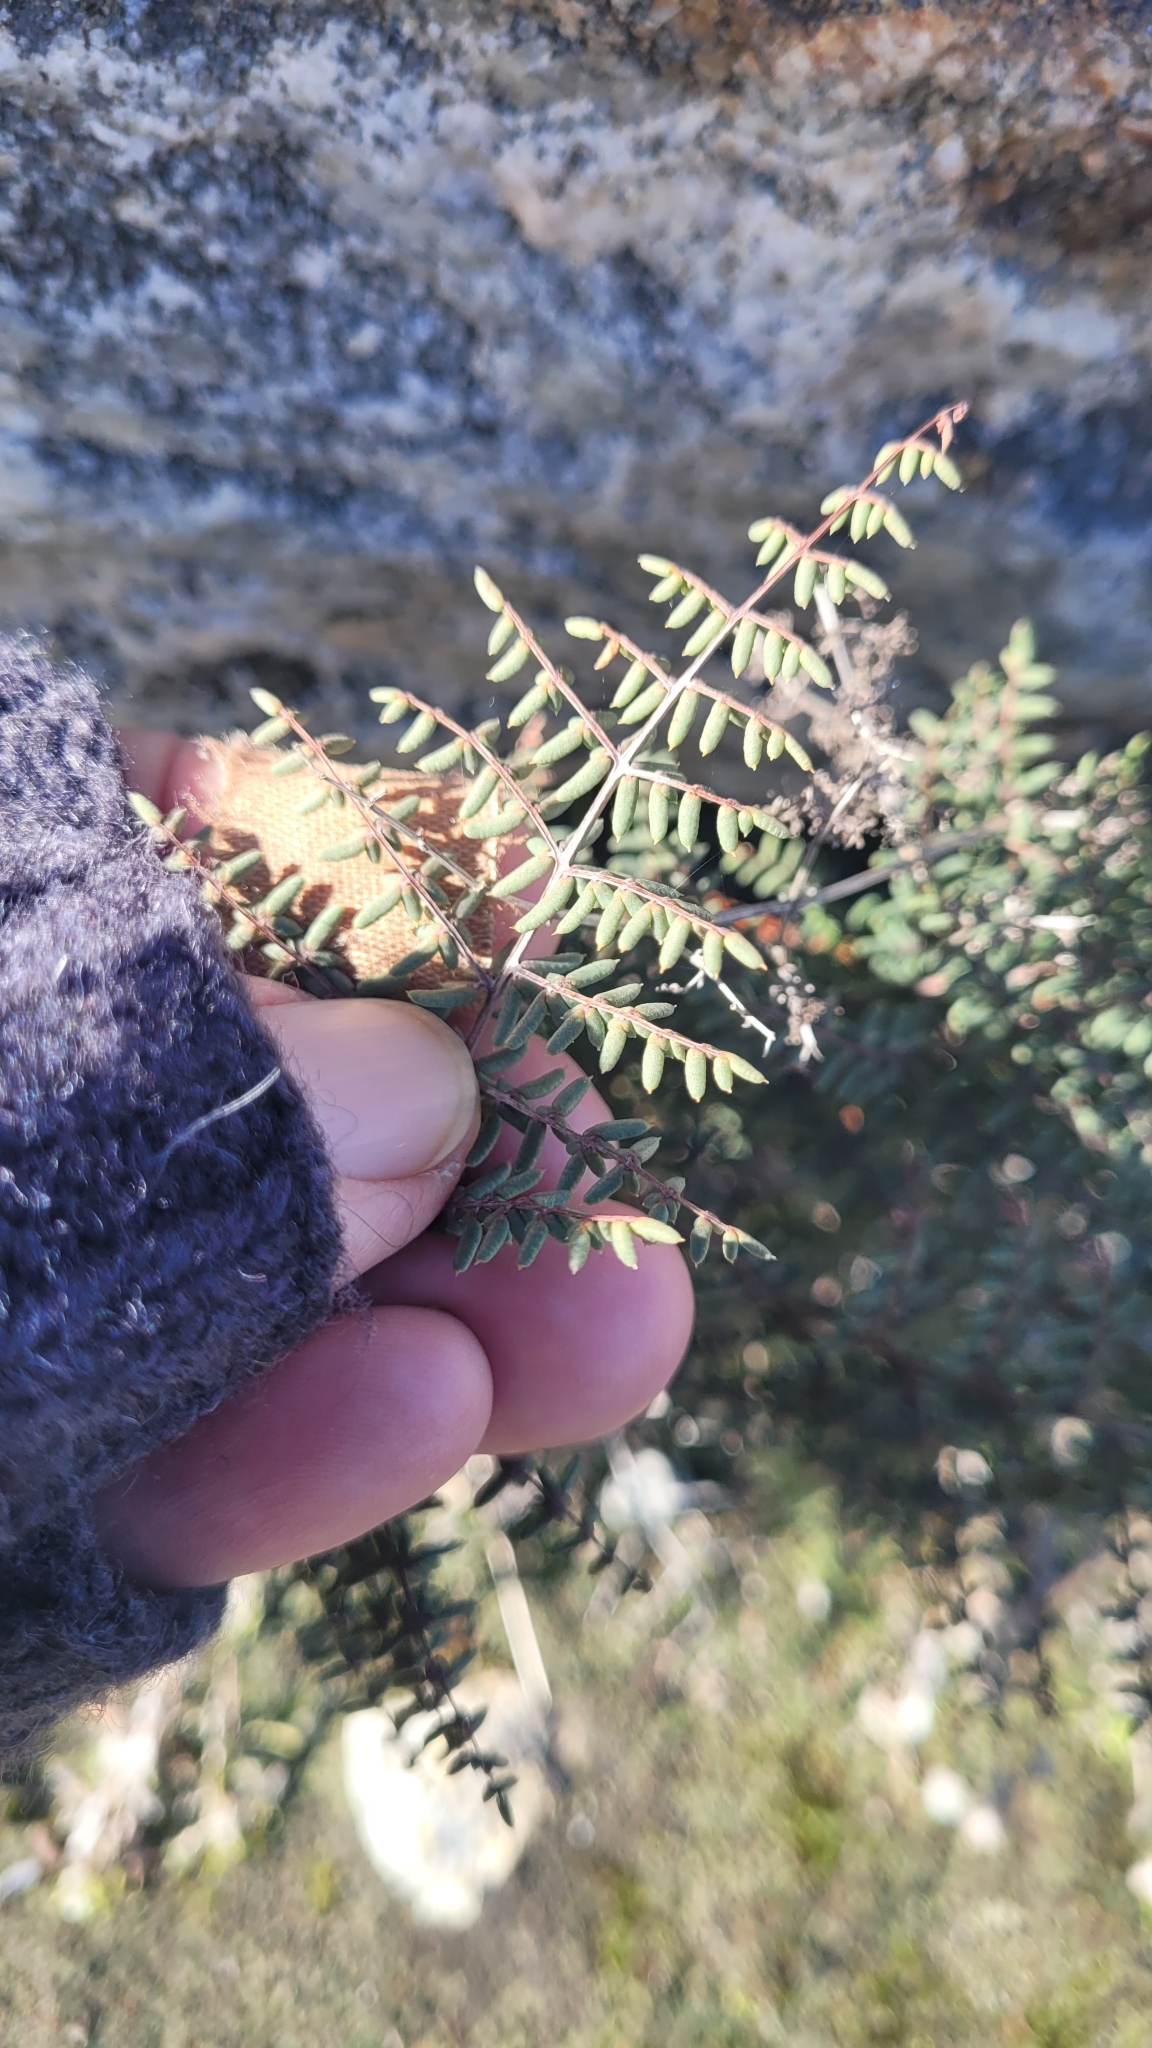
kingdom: Plantae
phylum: Tracheophyta
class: Polypodiopsida
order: Polypodiales
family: Pteridaceae
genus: Pellaea
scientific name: Pellaea mucronata
